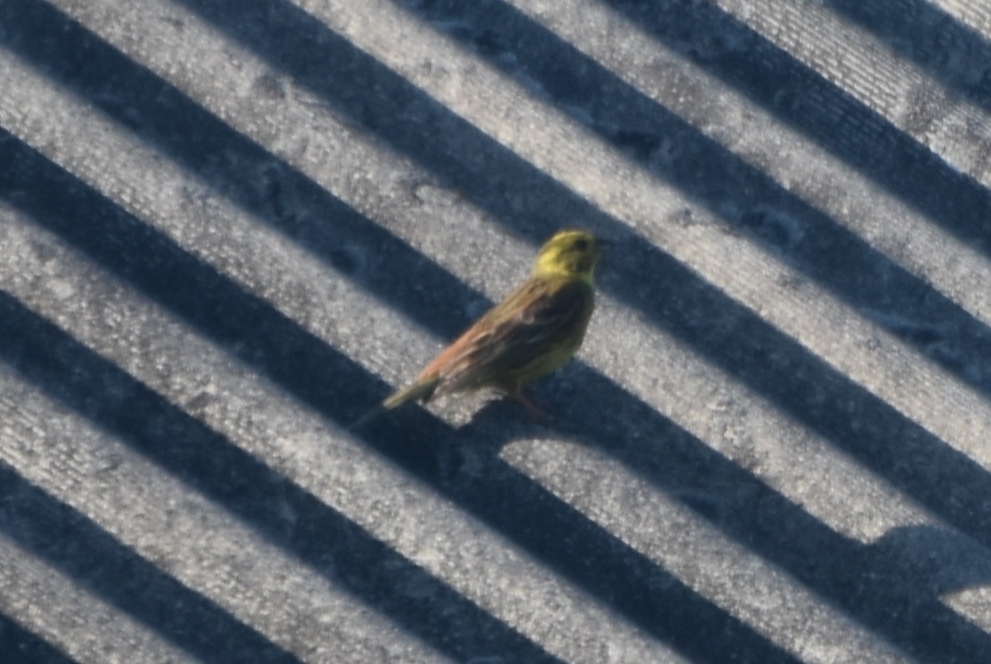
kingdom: Animalia
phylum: Chordata
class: Aves
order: Passeriformes
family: Emberizidae
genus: Emberiza
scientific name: Emberiza citrinella
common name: Yellowhammer
